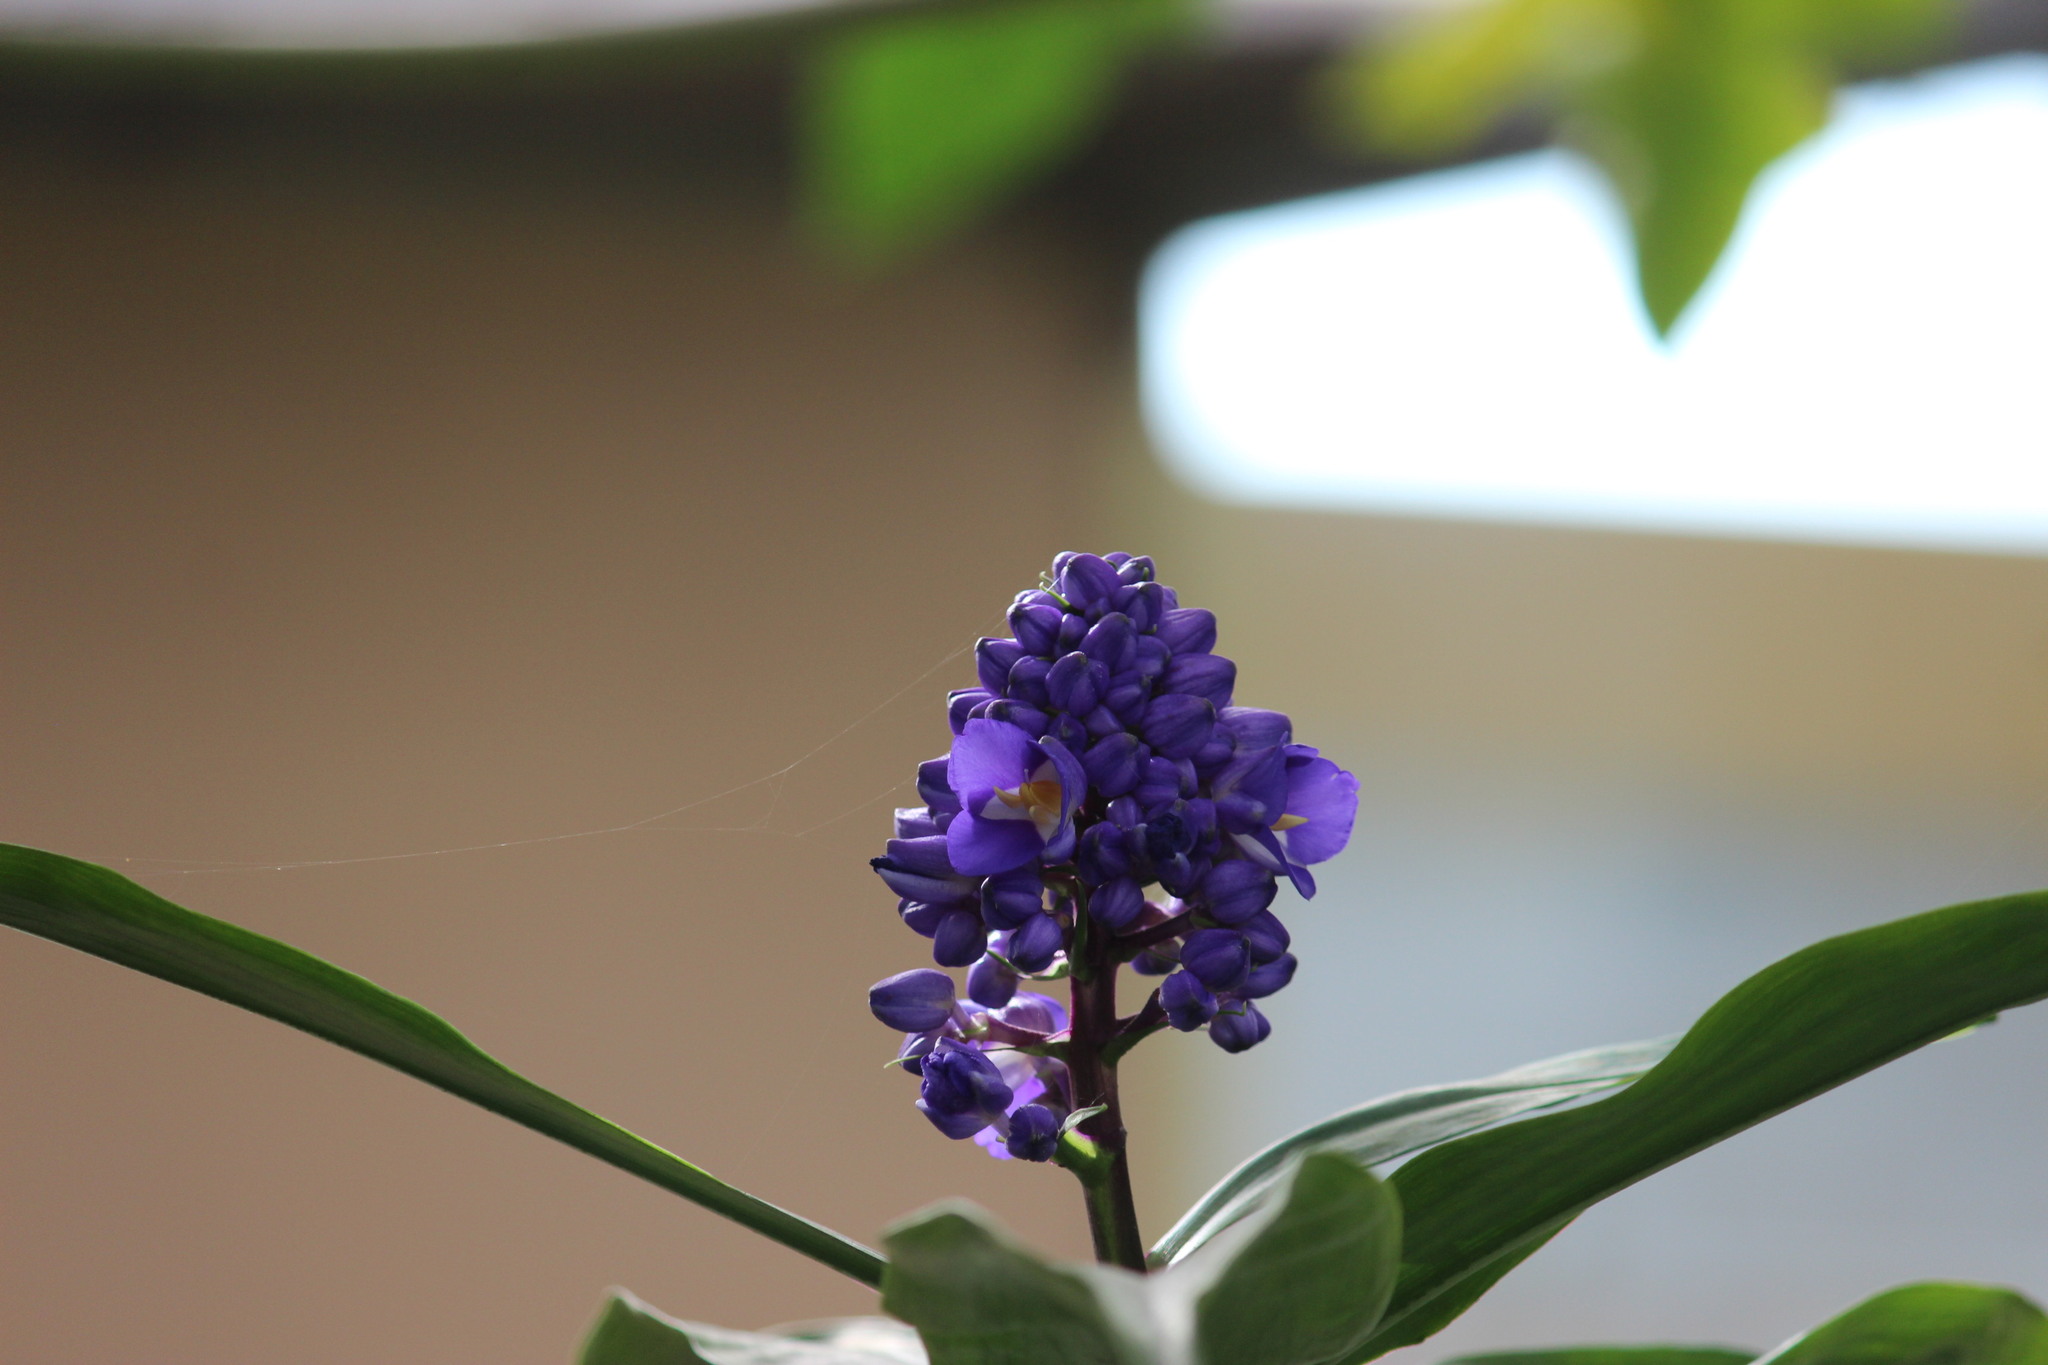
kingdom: Plantae
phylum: Tracheophyta
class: Liliopsida
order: Commelinales
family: Commelinaceae
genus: Dichorisandra
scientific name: Dichorisandra thyrsiflora
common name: Blue-ginger
